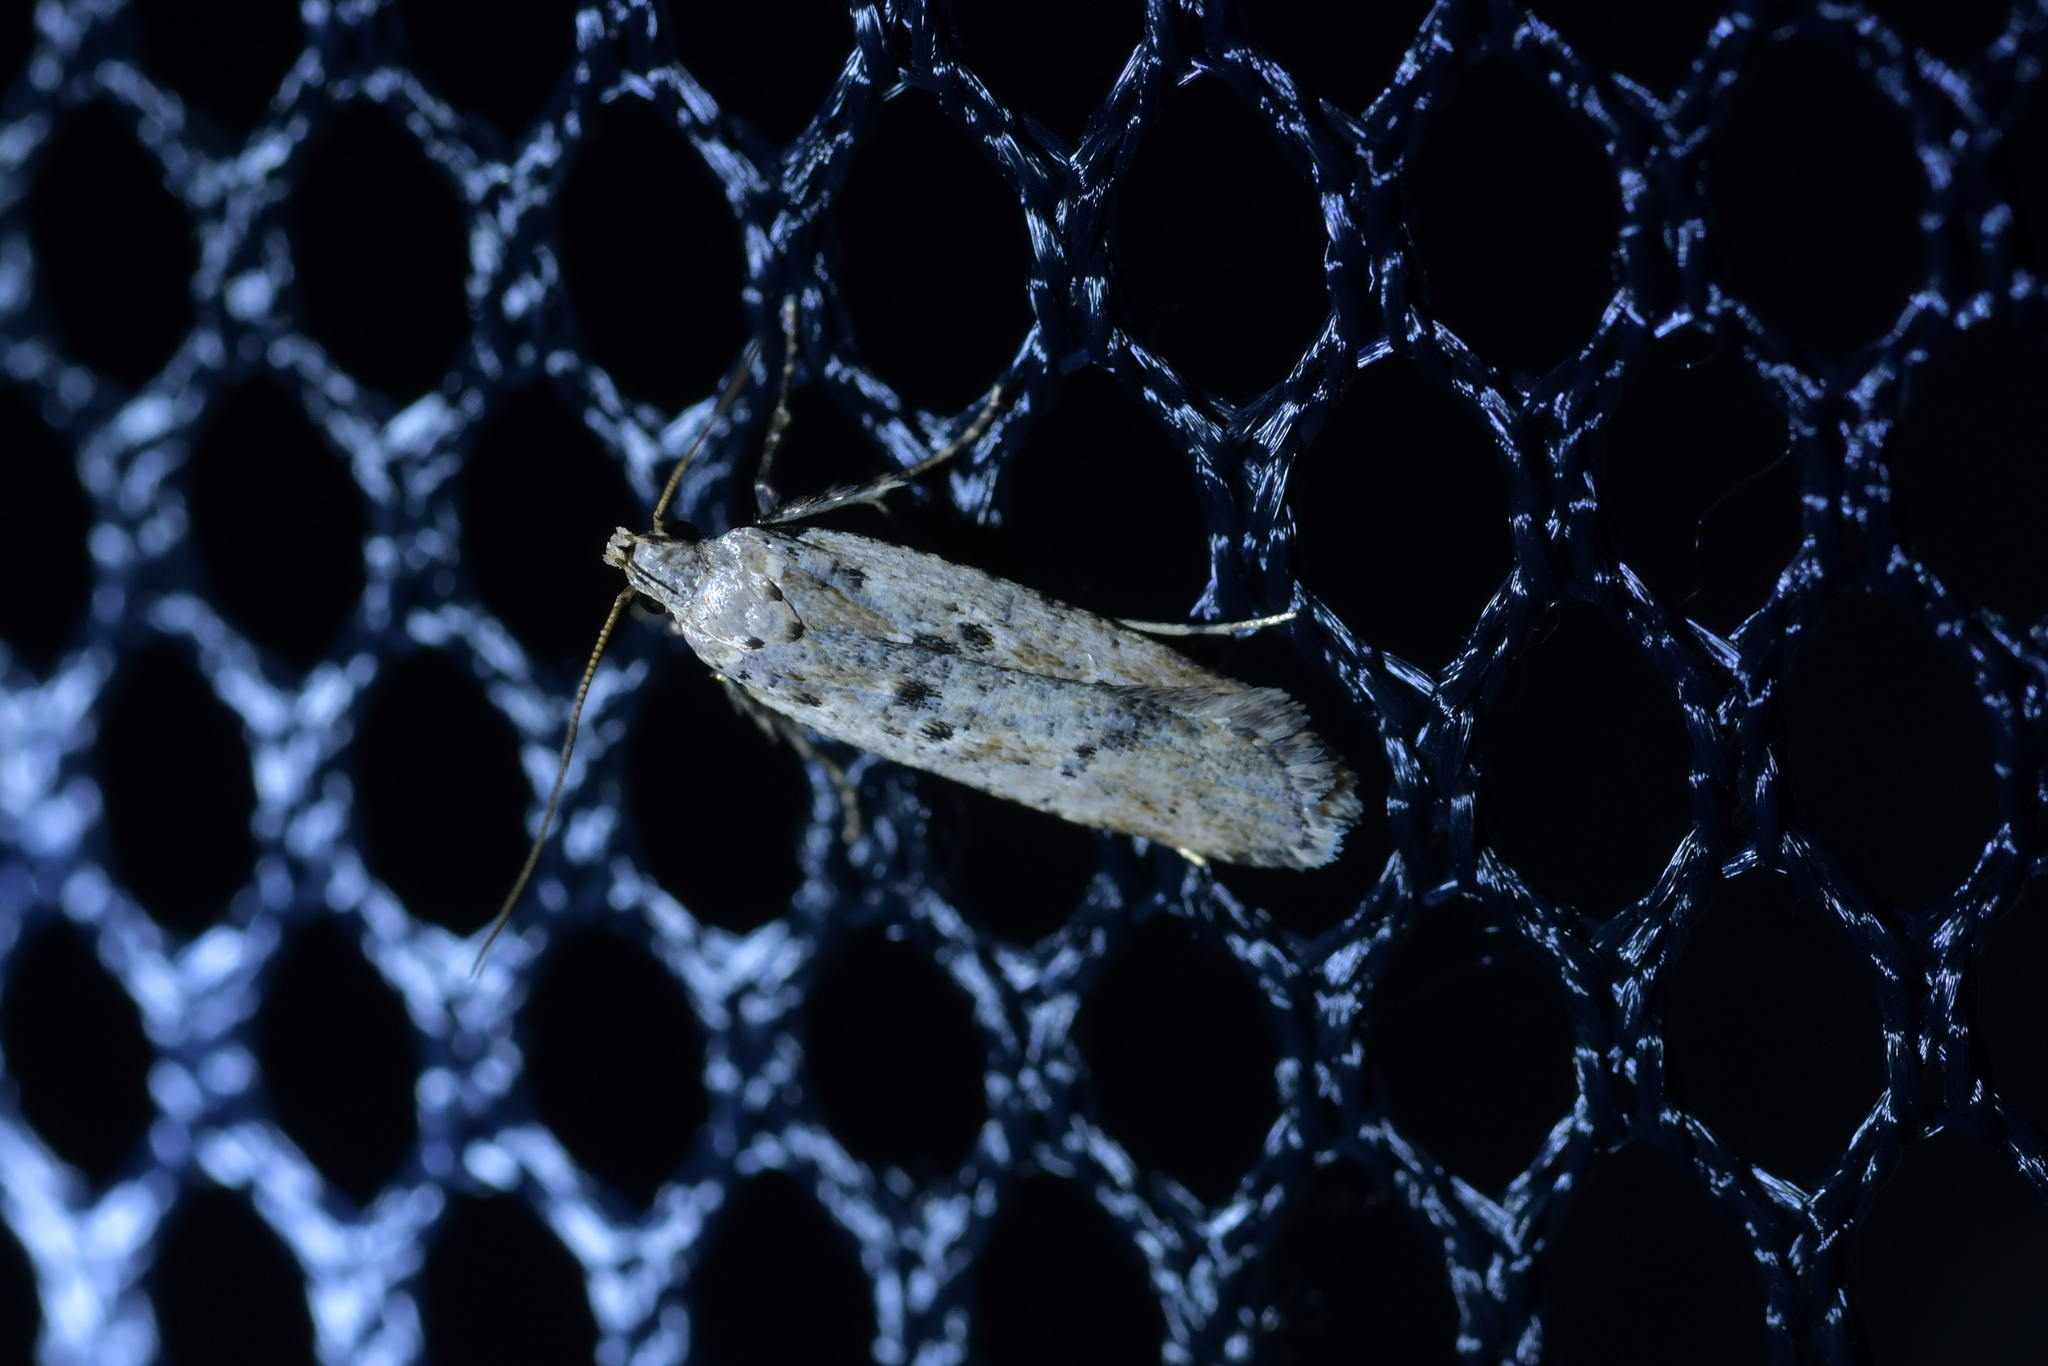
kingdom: Animalia
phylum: Arthropoda
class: Insecta
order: Lepidoptera
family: Gelechiidae
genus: Anisoplaca
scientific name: Anisoplaca achyrota
